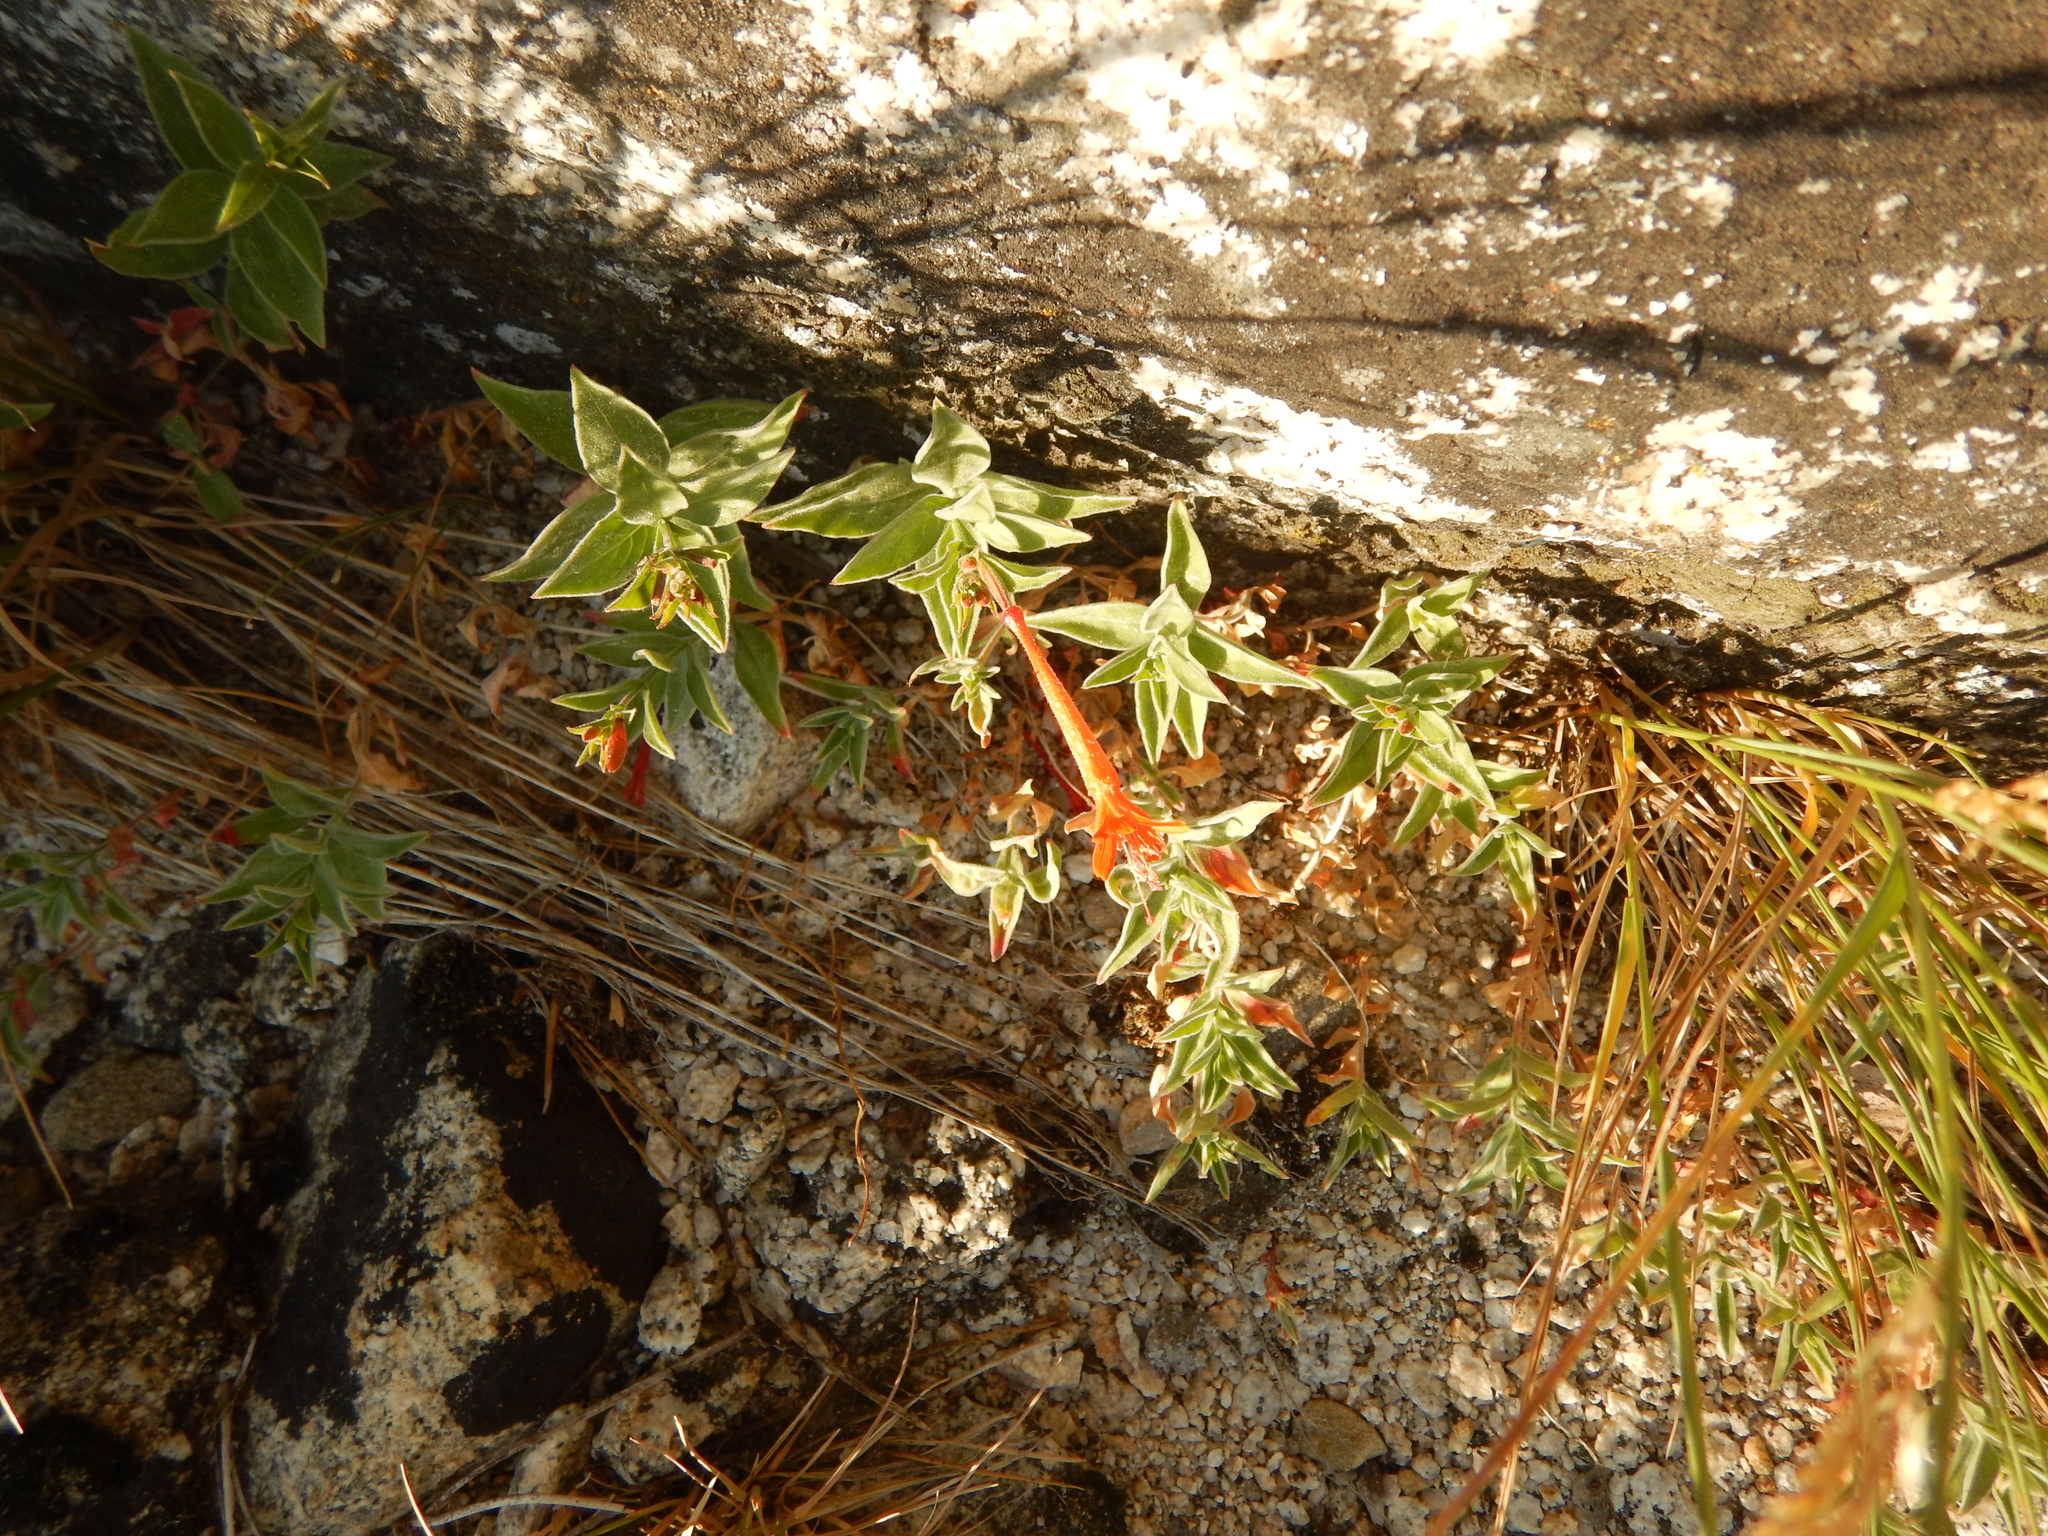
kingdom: Plantae
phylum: Tracheophyta
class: Magnoliopsida
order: Myrtales
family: Onagraceae
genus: Epilobium
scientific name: Epilobium canum
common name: California-fuchsia
